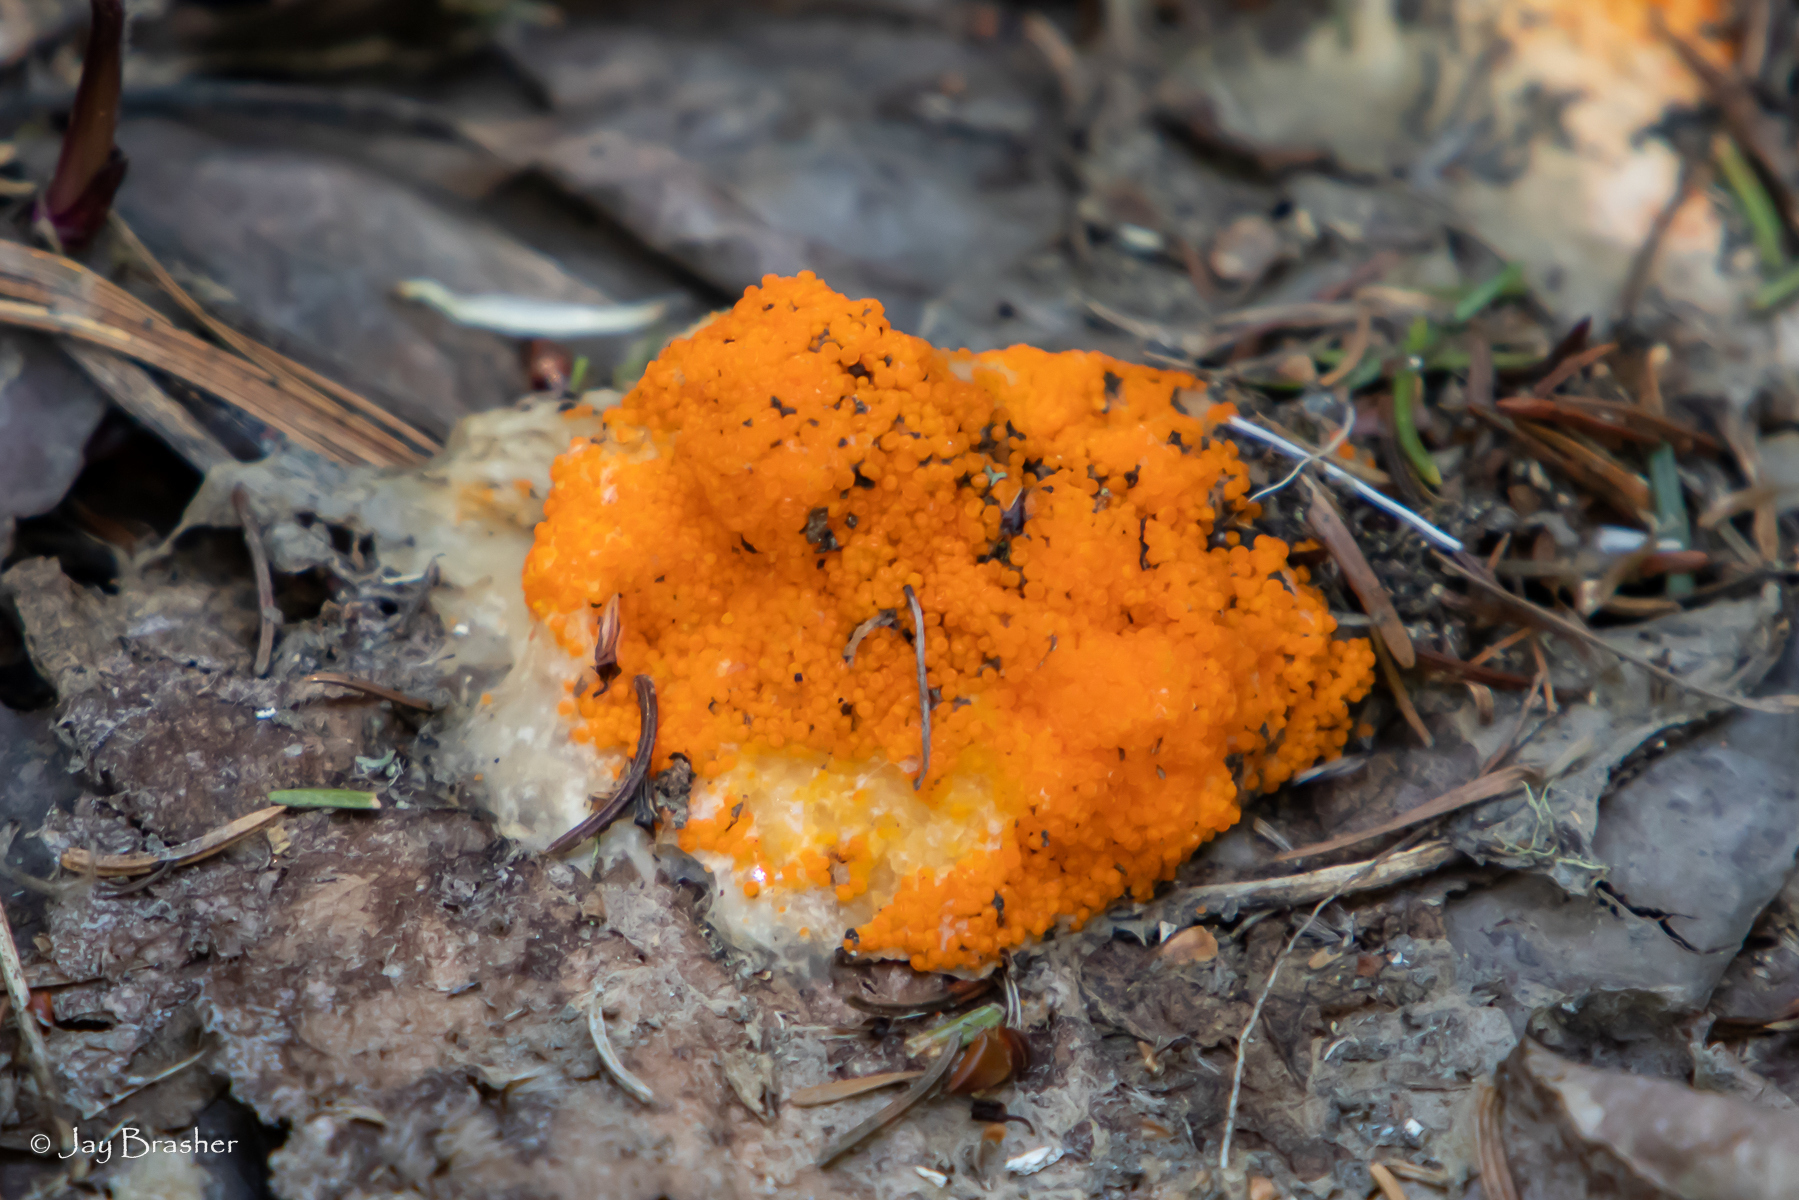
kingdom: Fungi
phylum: Ascomycota
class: Pezizomycetes
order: Pezizales
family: Pyronemataceae
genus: Byssonectria
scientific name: Byssonectria terrestris
